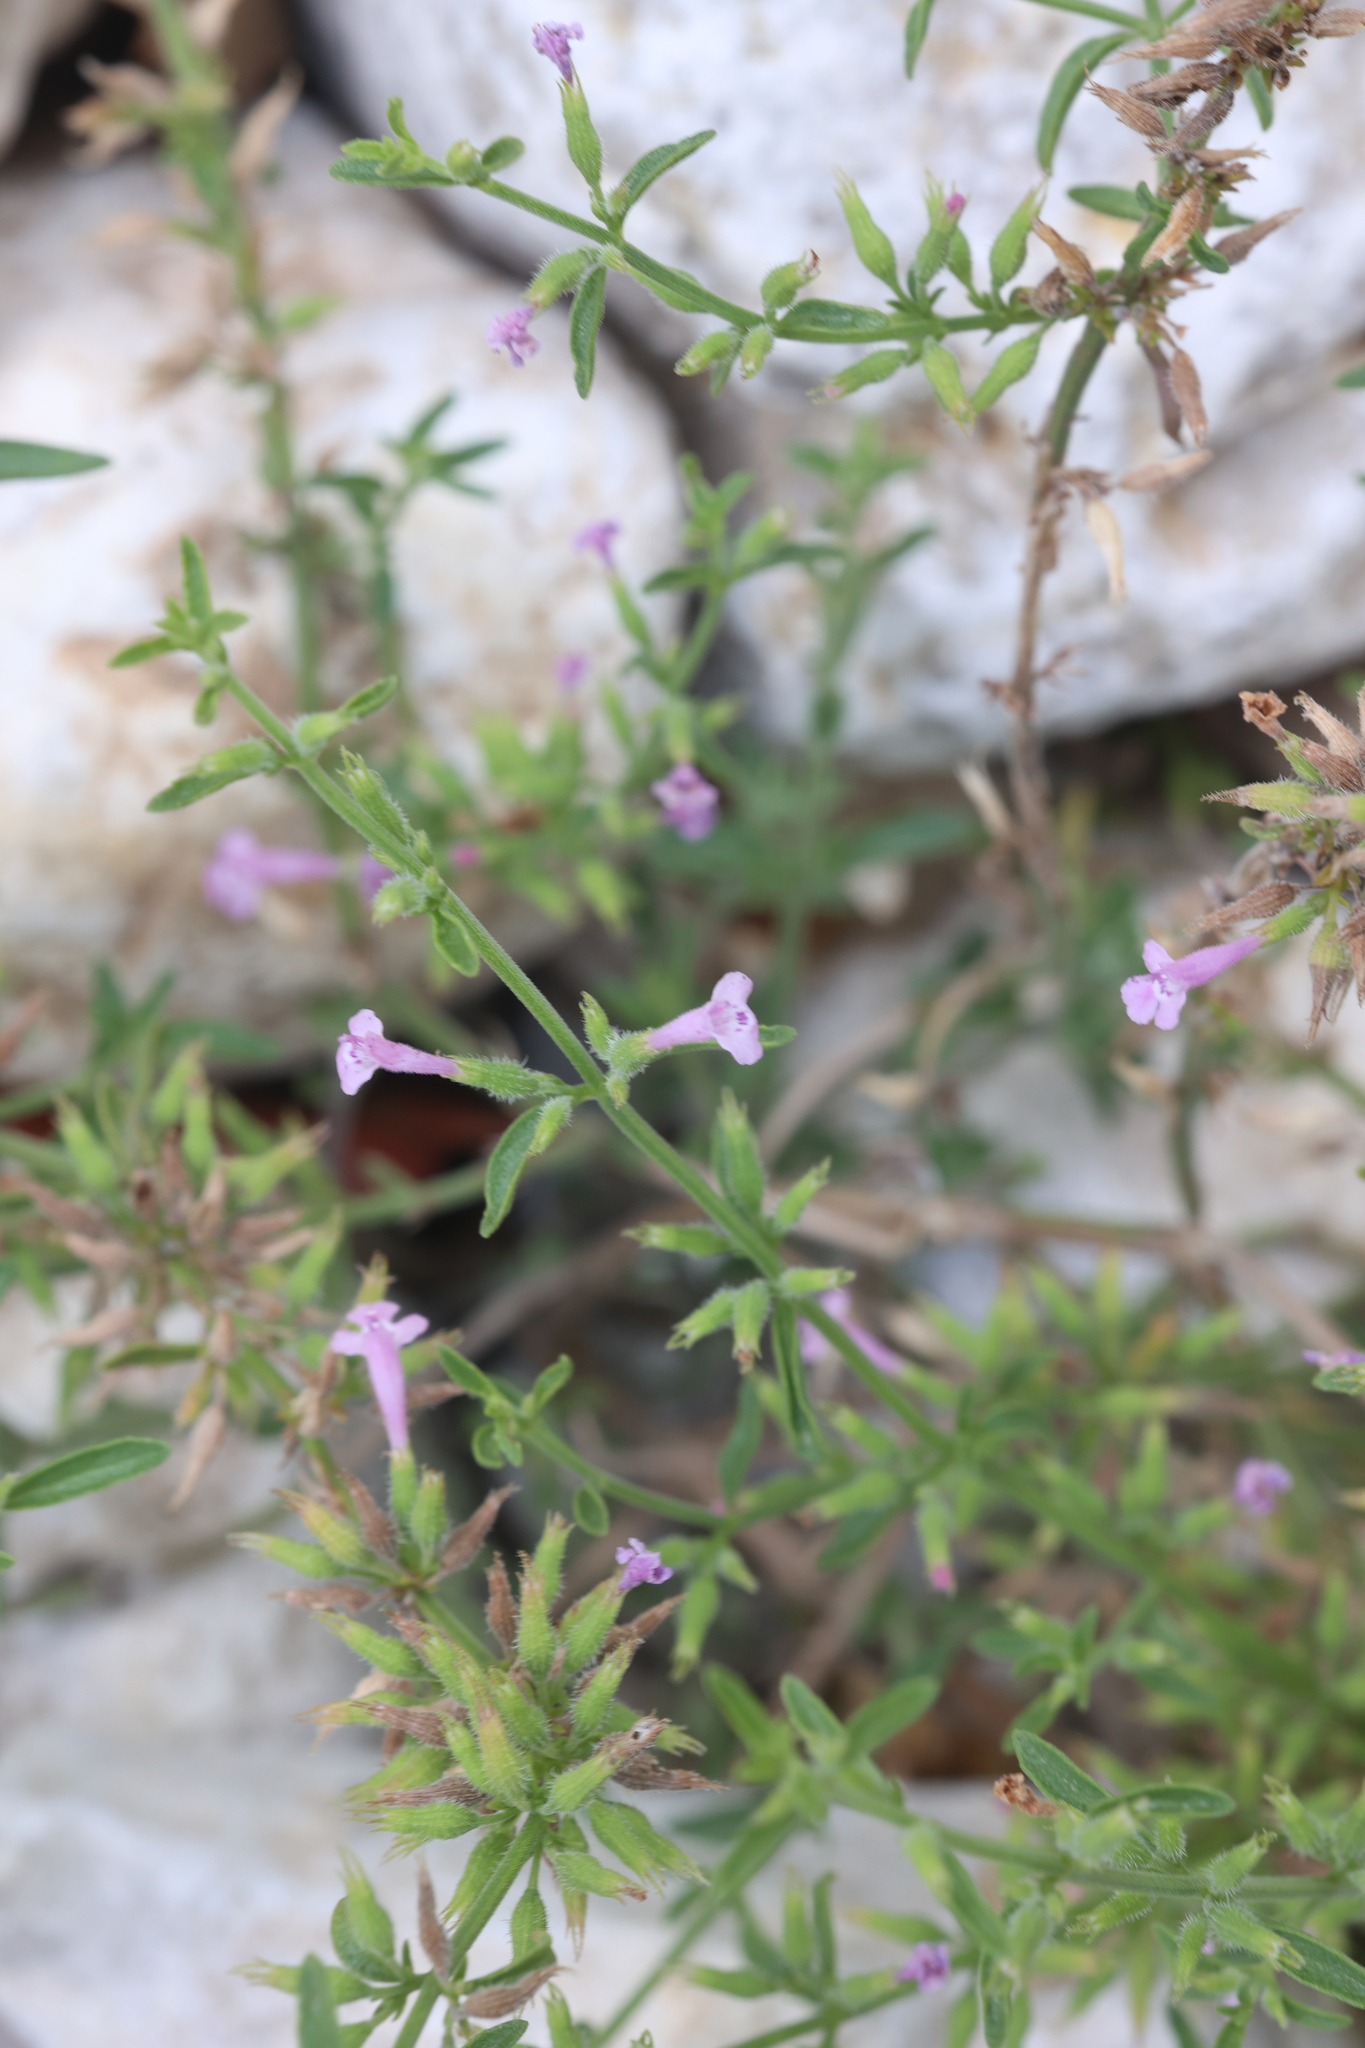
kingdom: Plantae
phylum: Tracheophyta
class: Magnoliopsida
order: Lamiales
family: Lamiaceae
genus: Hedeoma
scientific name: Hedeoma drummondii
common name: New mexico pennyroyal
